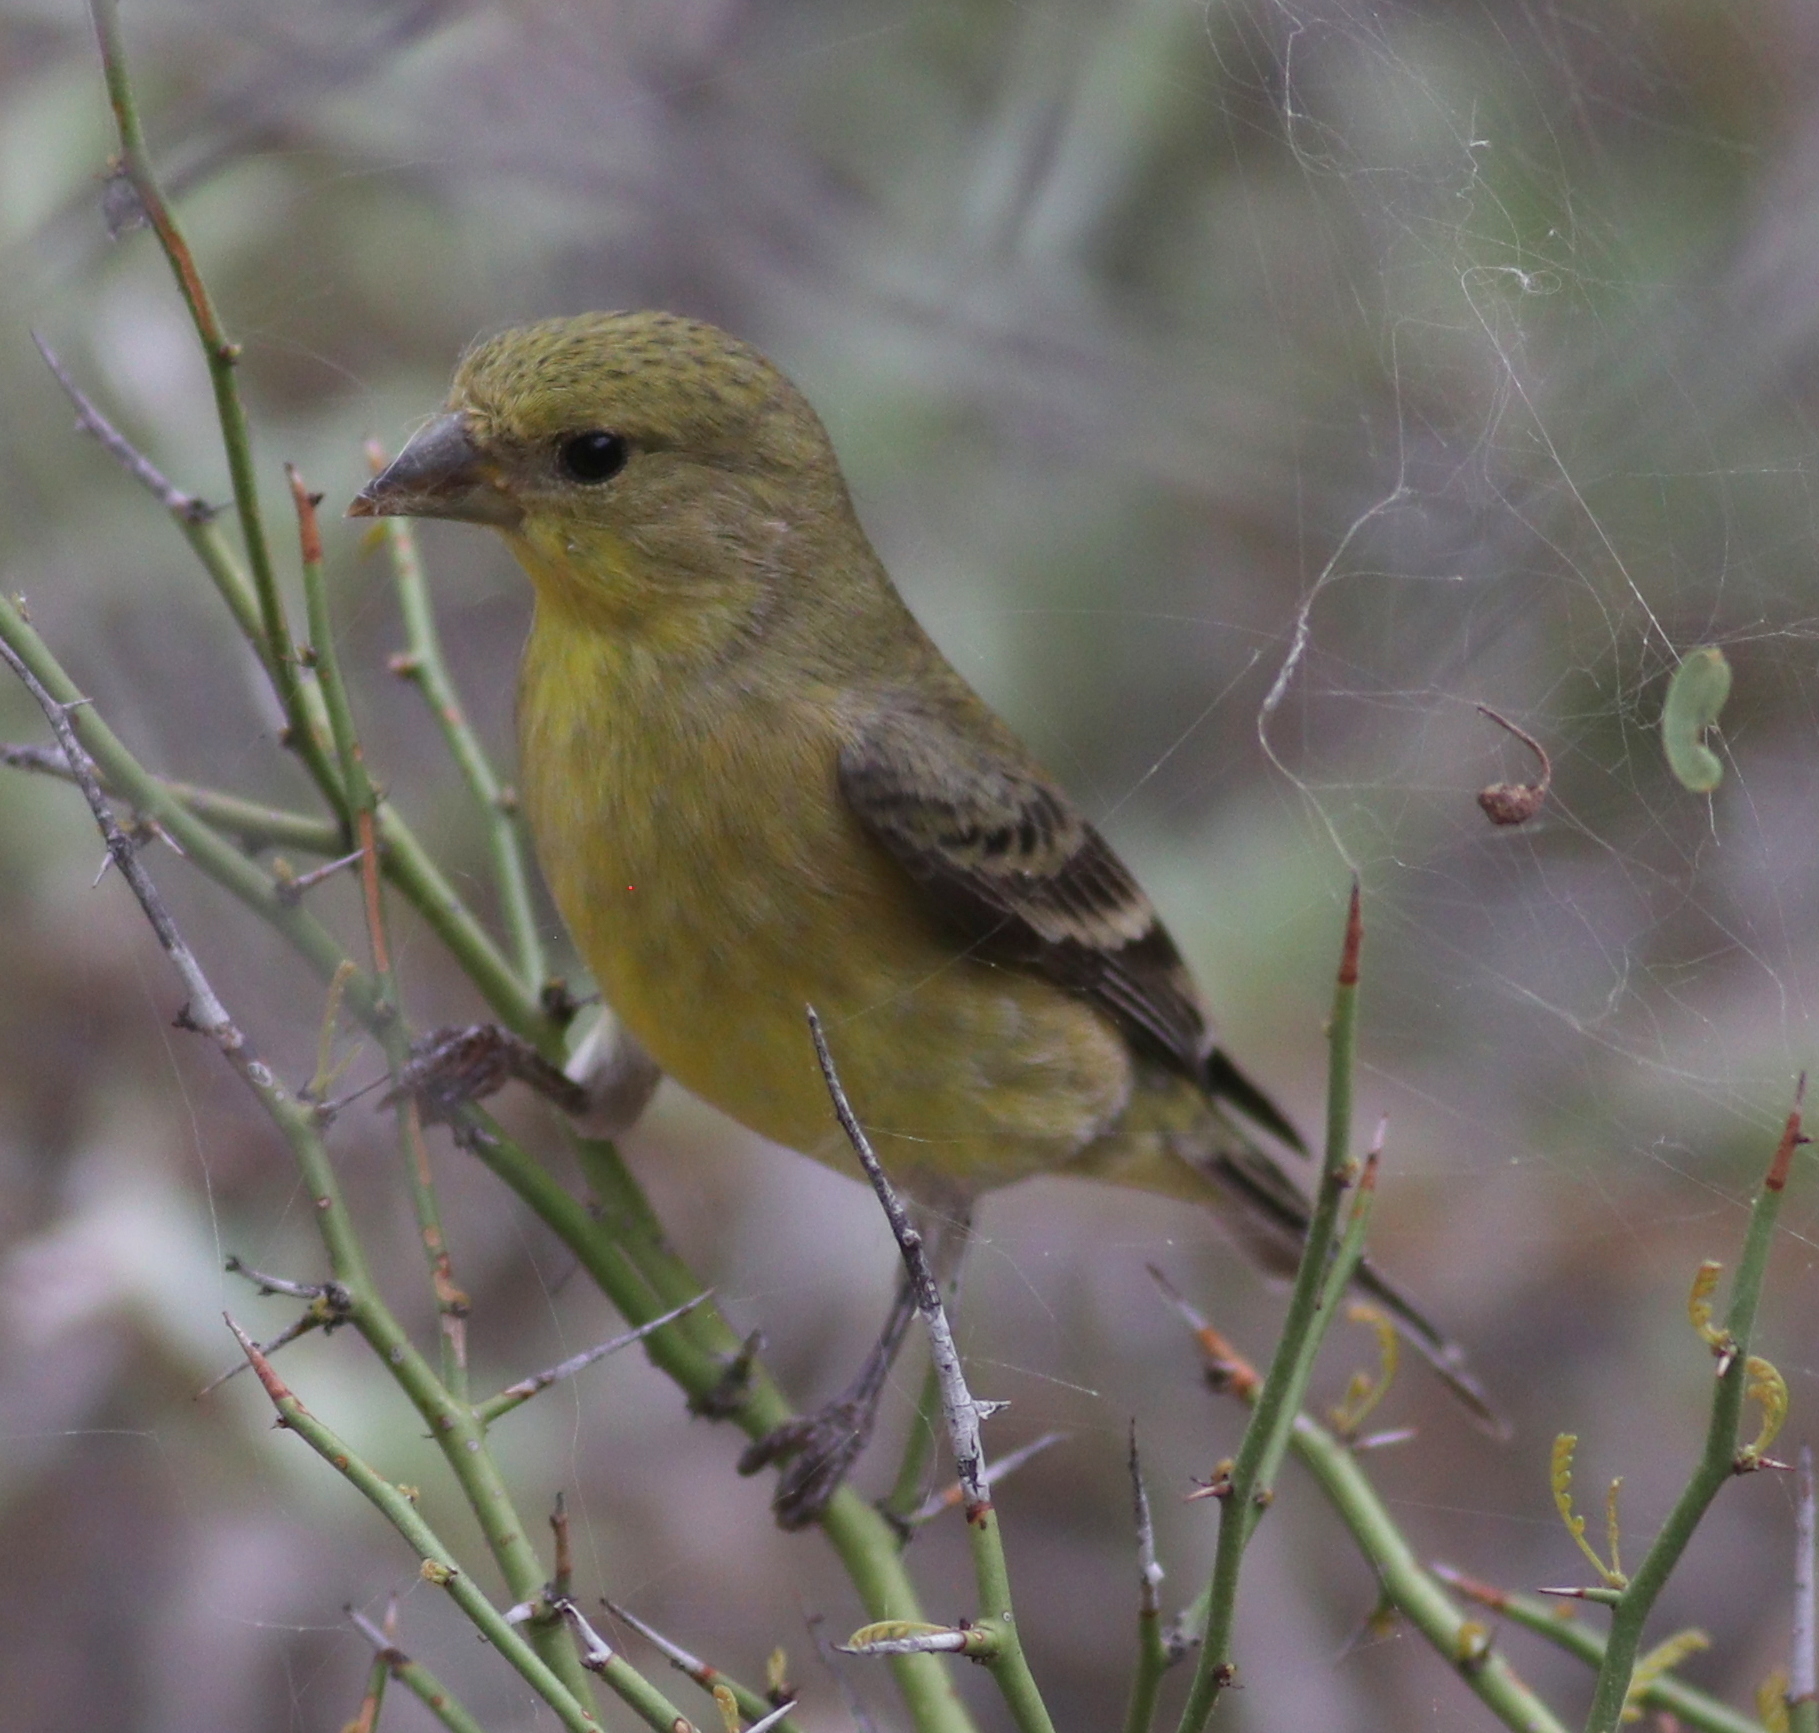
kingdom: Animalia
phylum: Chordata
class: Aves
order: Passeriformes
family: Fringillidae
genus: Spinus
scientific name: Spinus psaltria
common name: Lesser goldfinch
